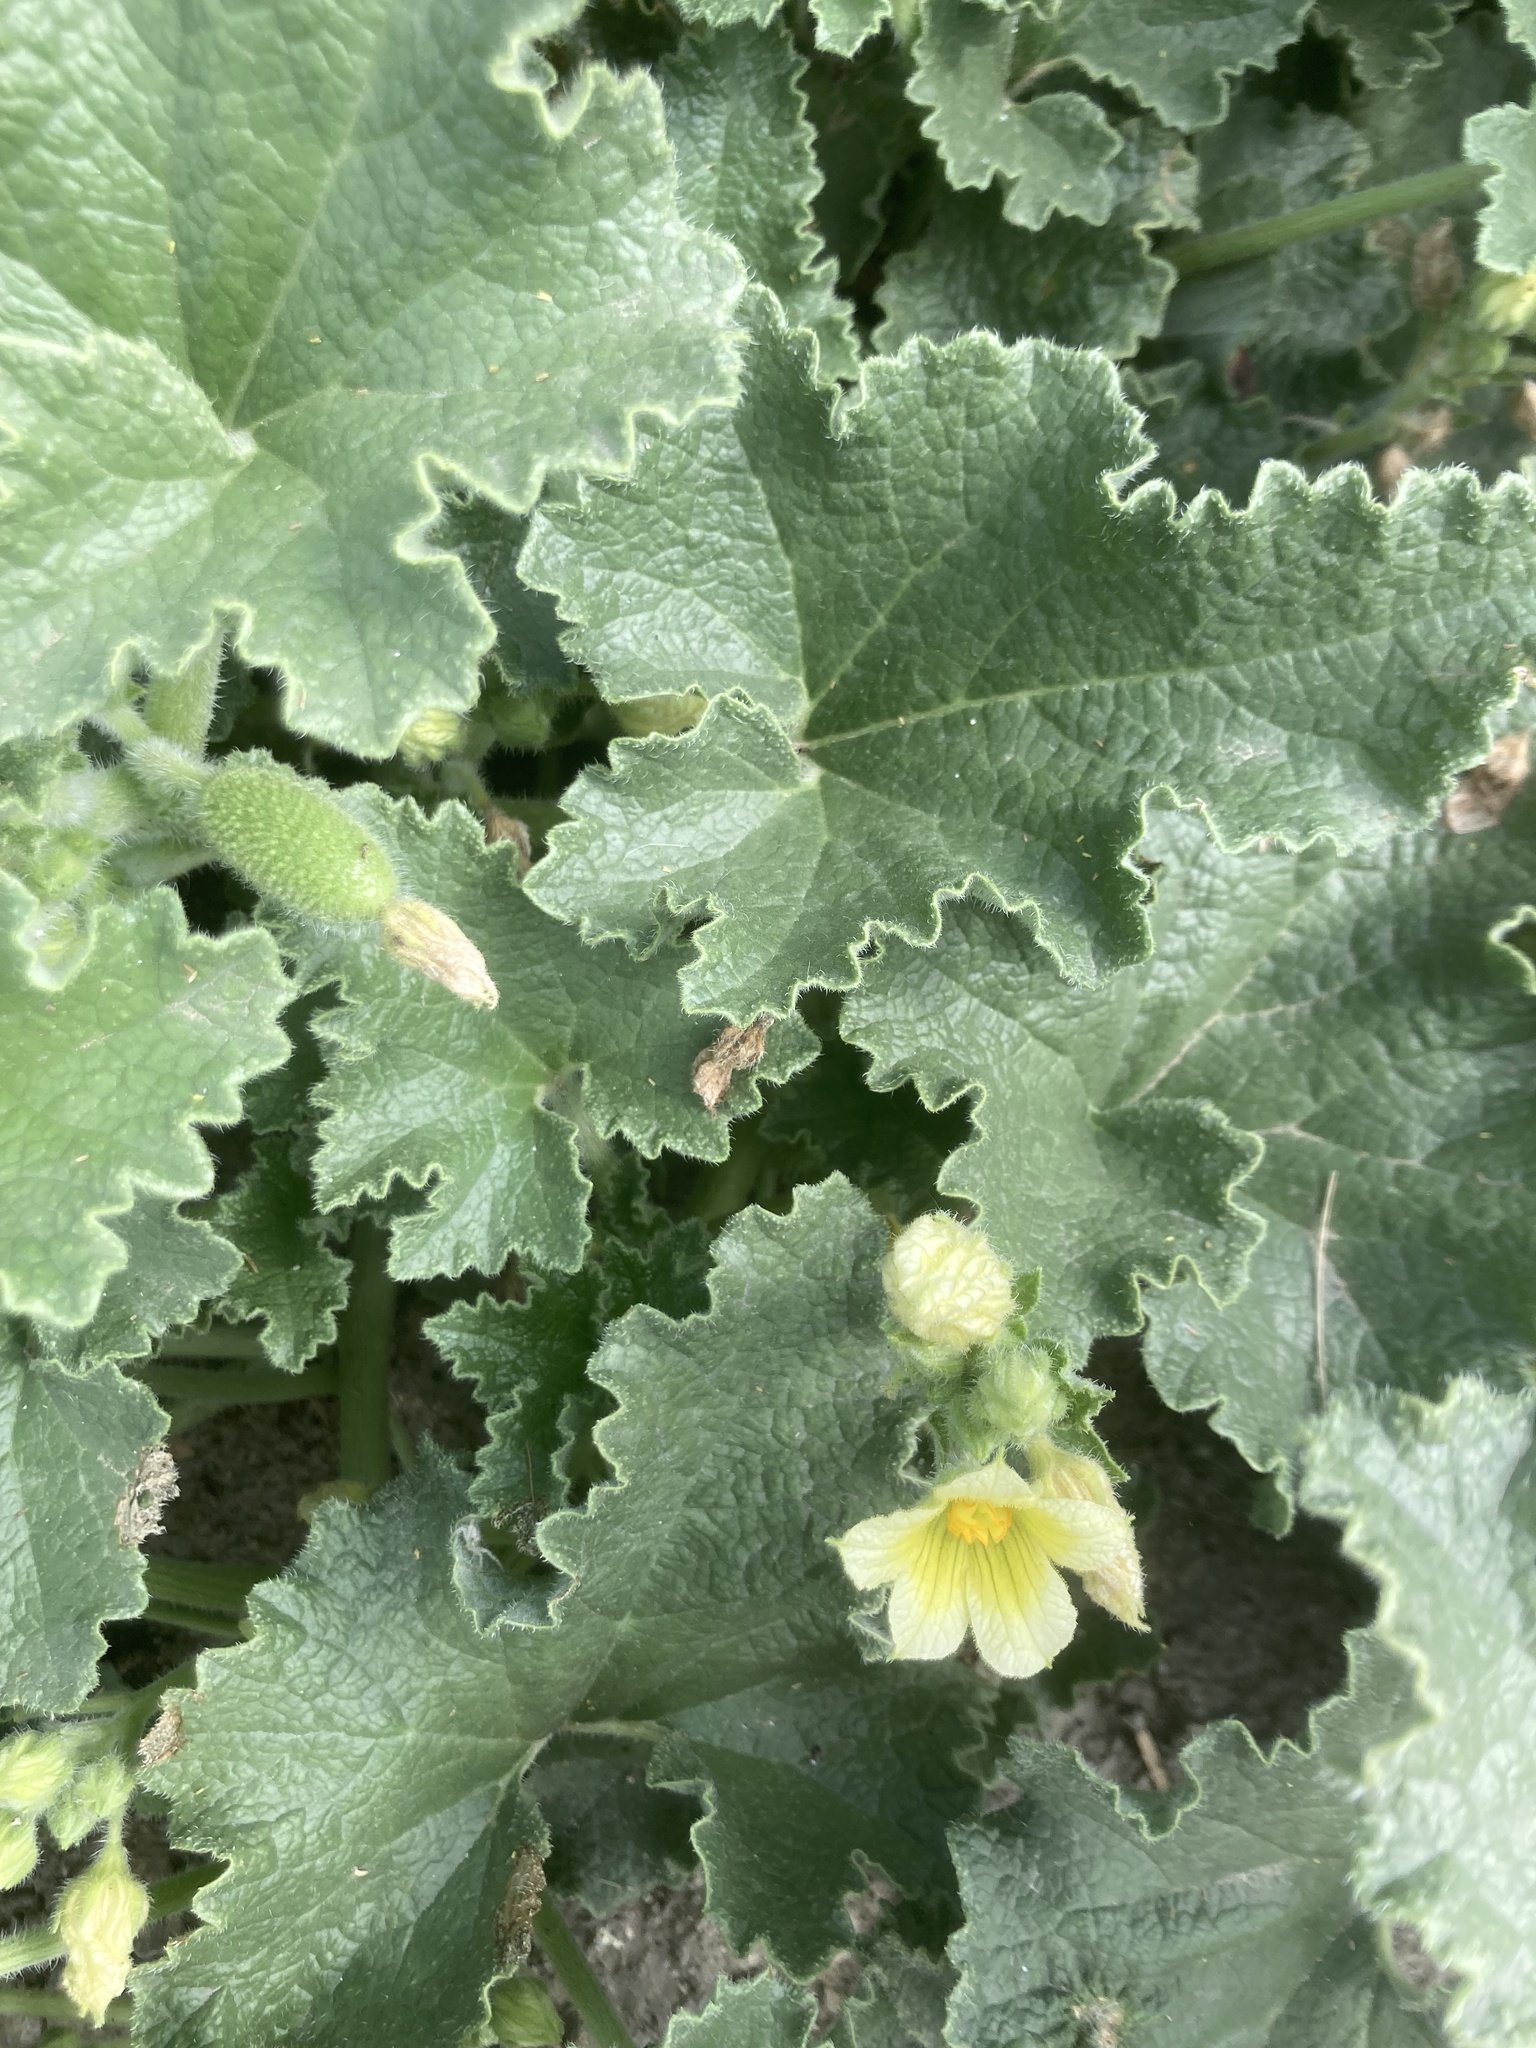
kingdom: Plantae
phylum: Tracheophyta
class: Magnoliopsida
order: Cucurbitales
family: Cucurbitaceae
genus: Ecballium
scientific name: Ecballium elaterium
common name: Squirting cucumber
